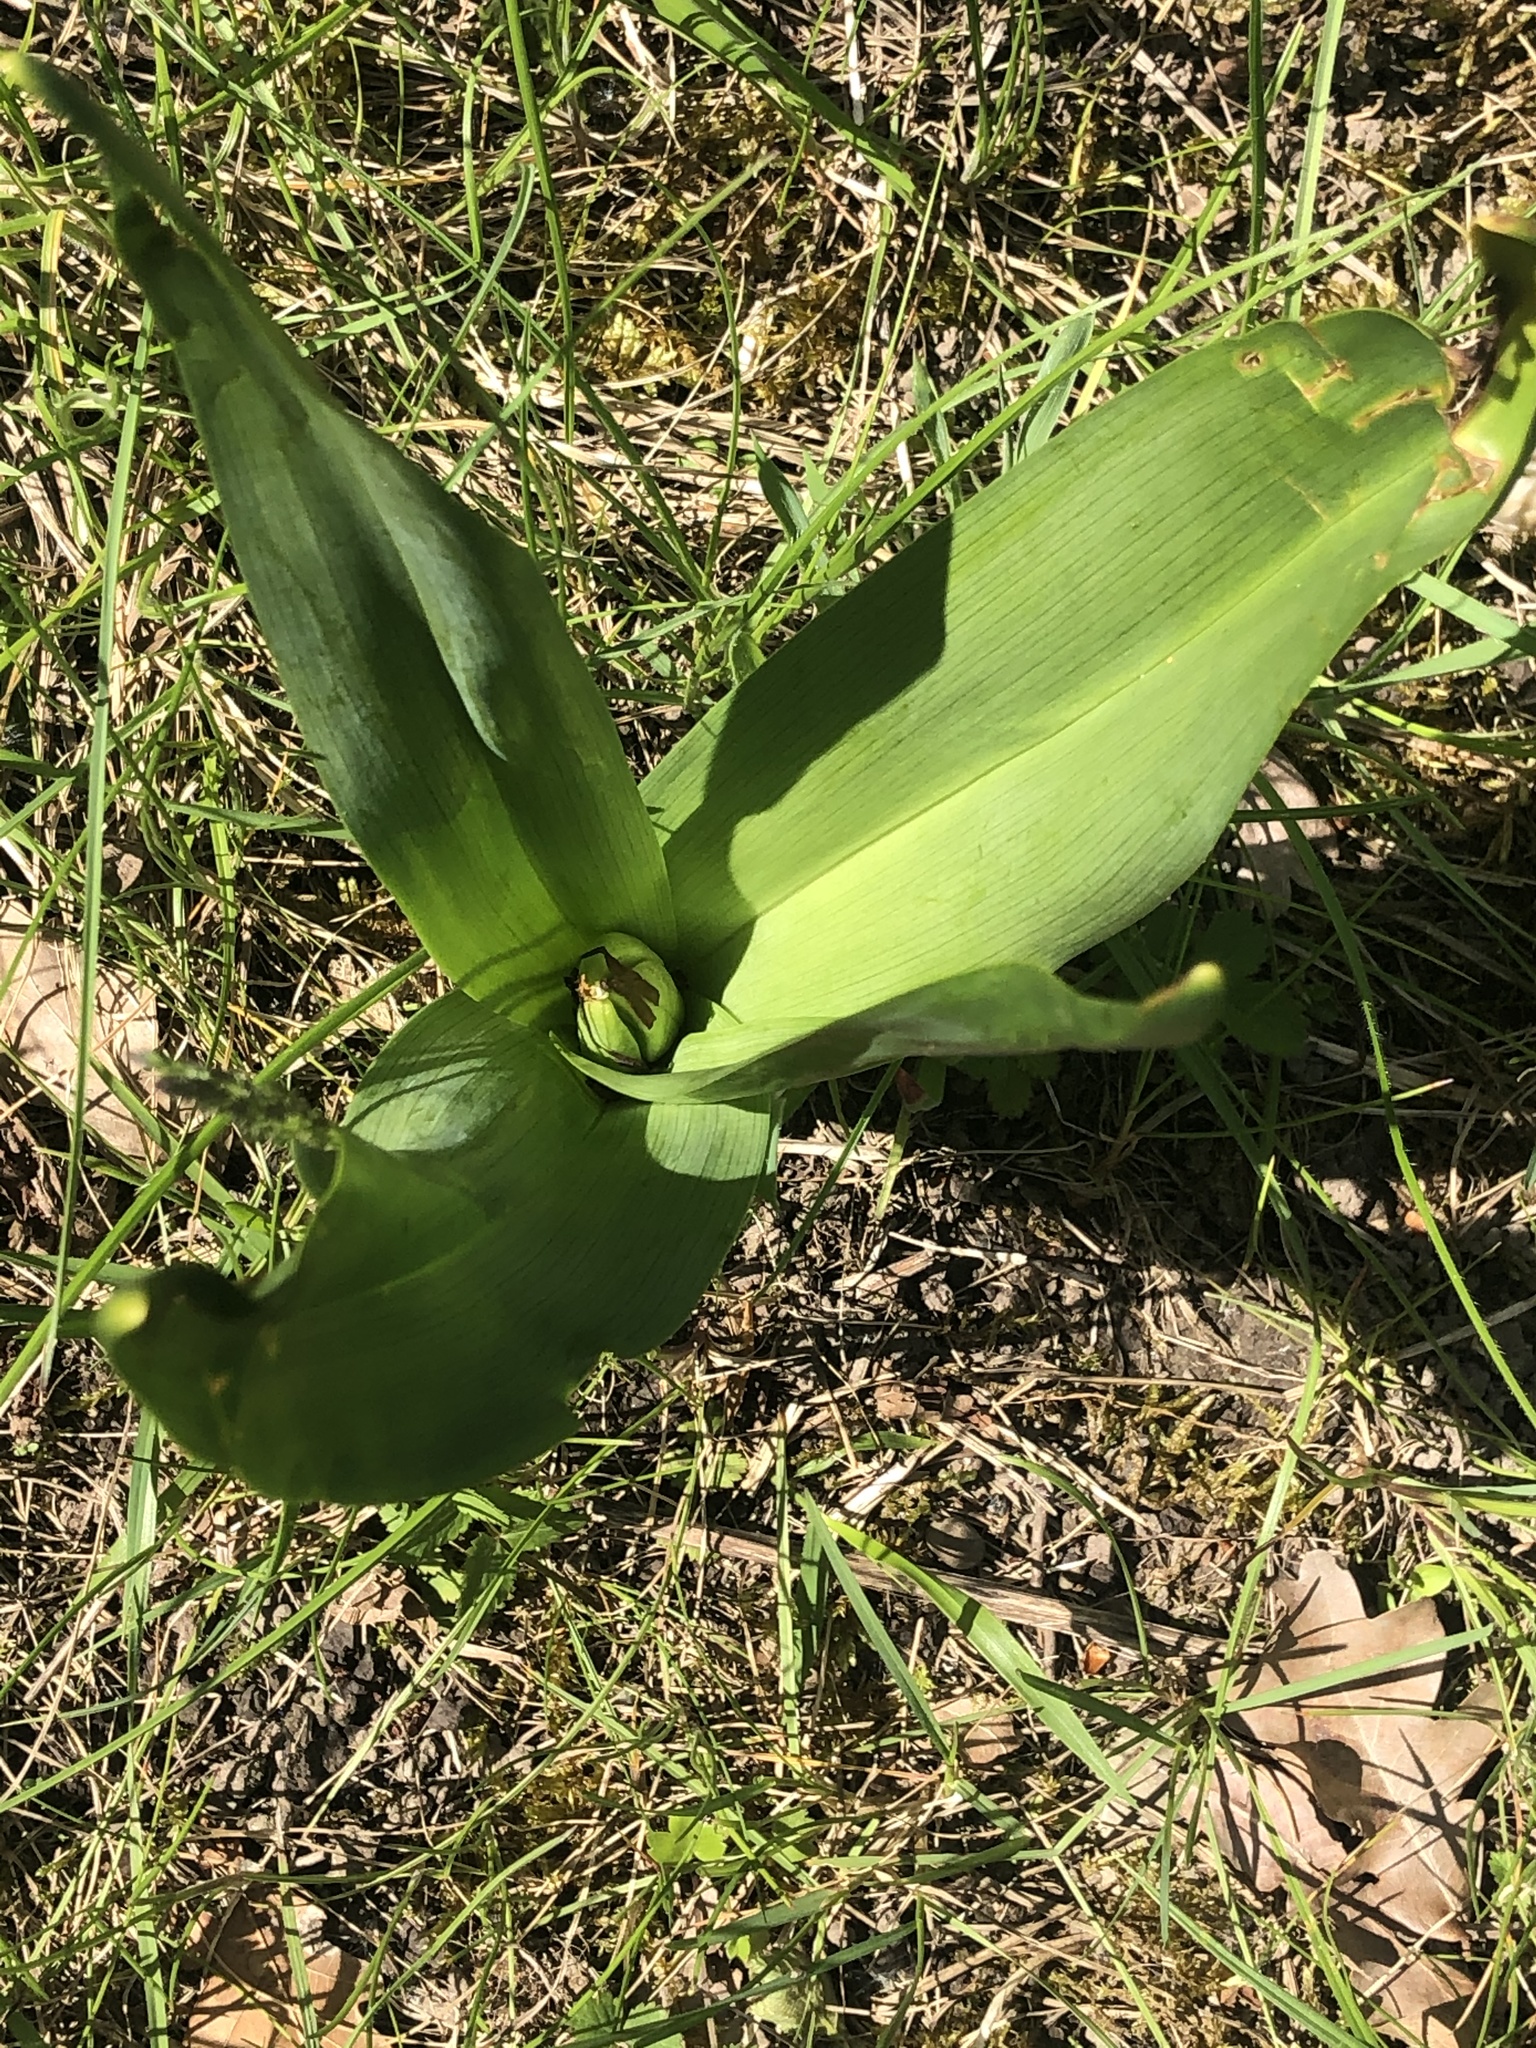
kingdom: Plantae
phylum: Tracheophyta
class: Liliopsida
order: Liliales
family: Colchicaceae
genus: Colchicum
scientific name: Colchicum autumnale
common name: Autumn crocus
